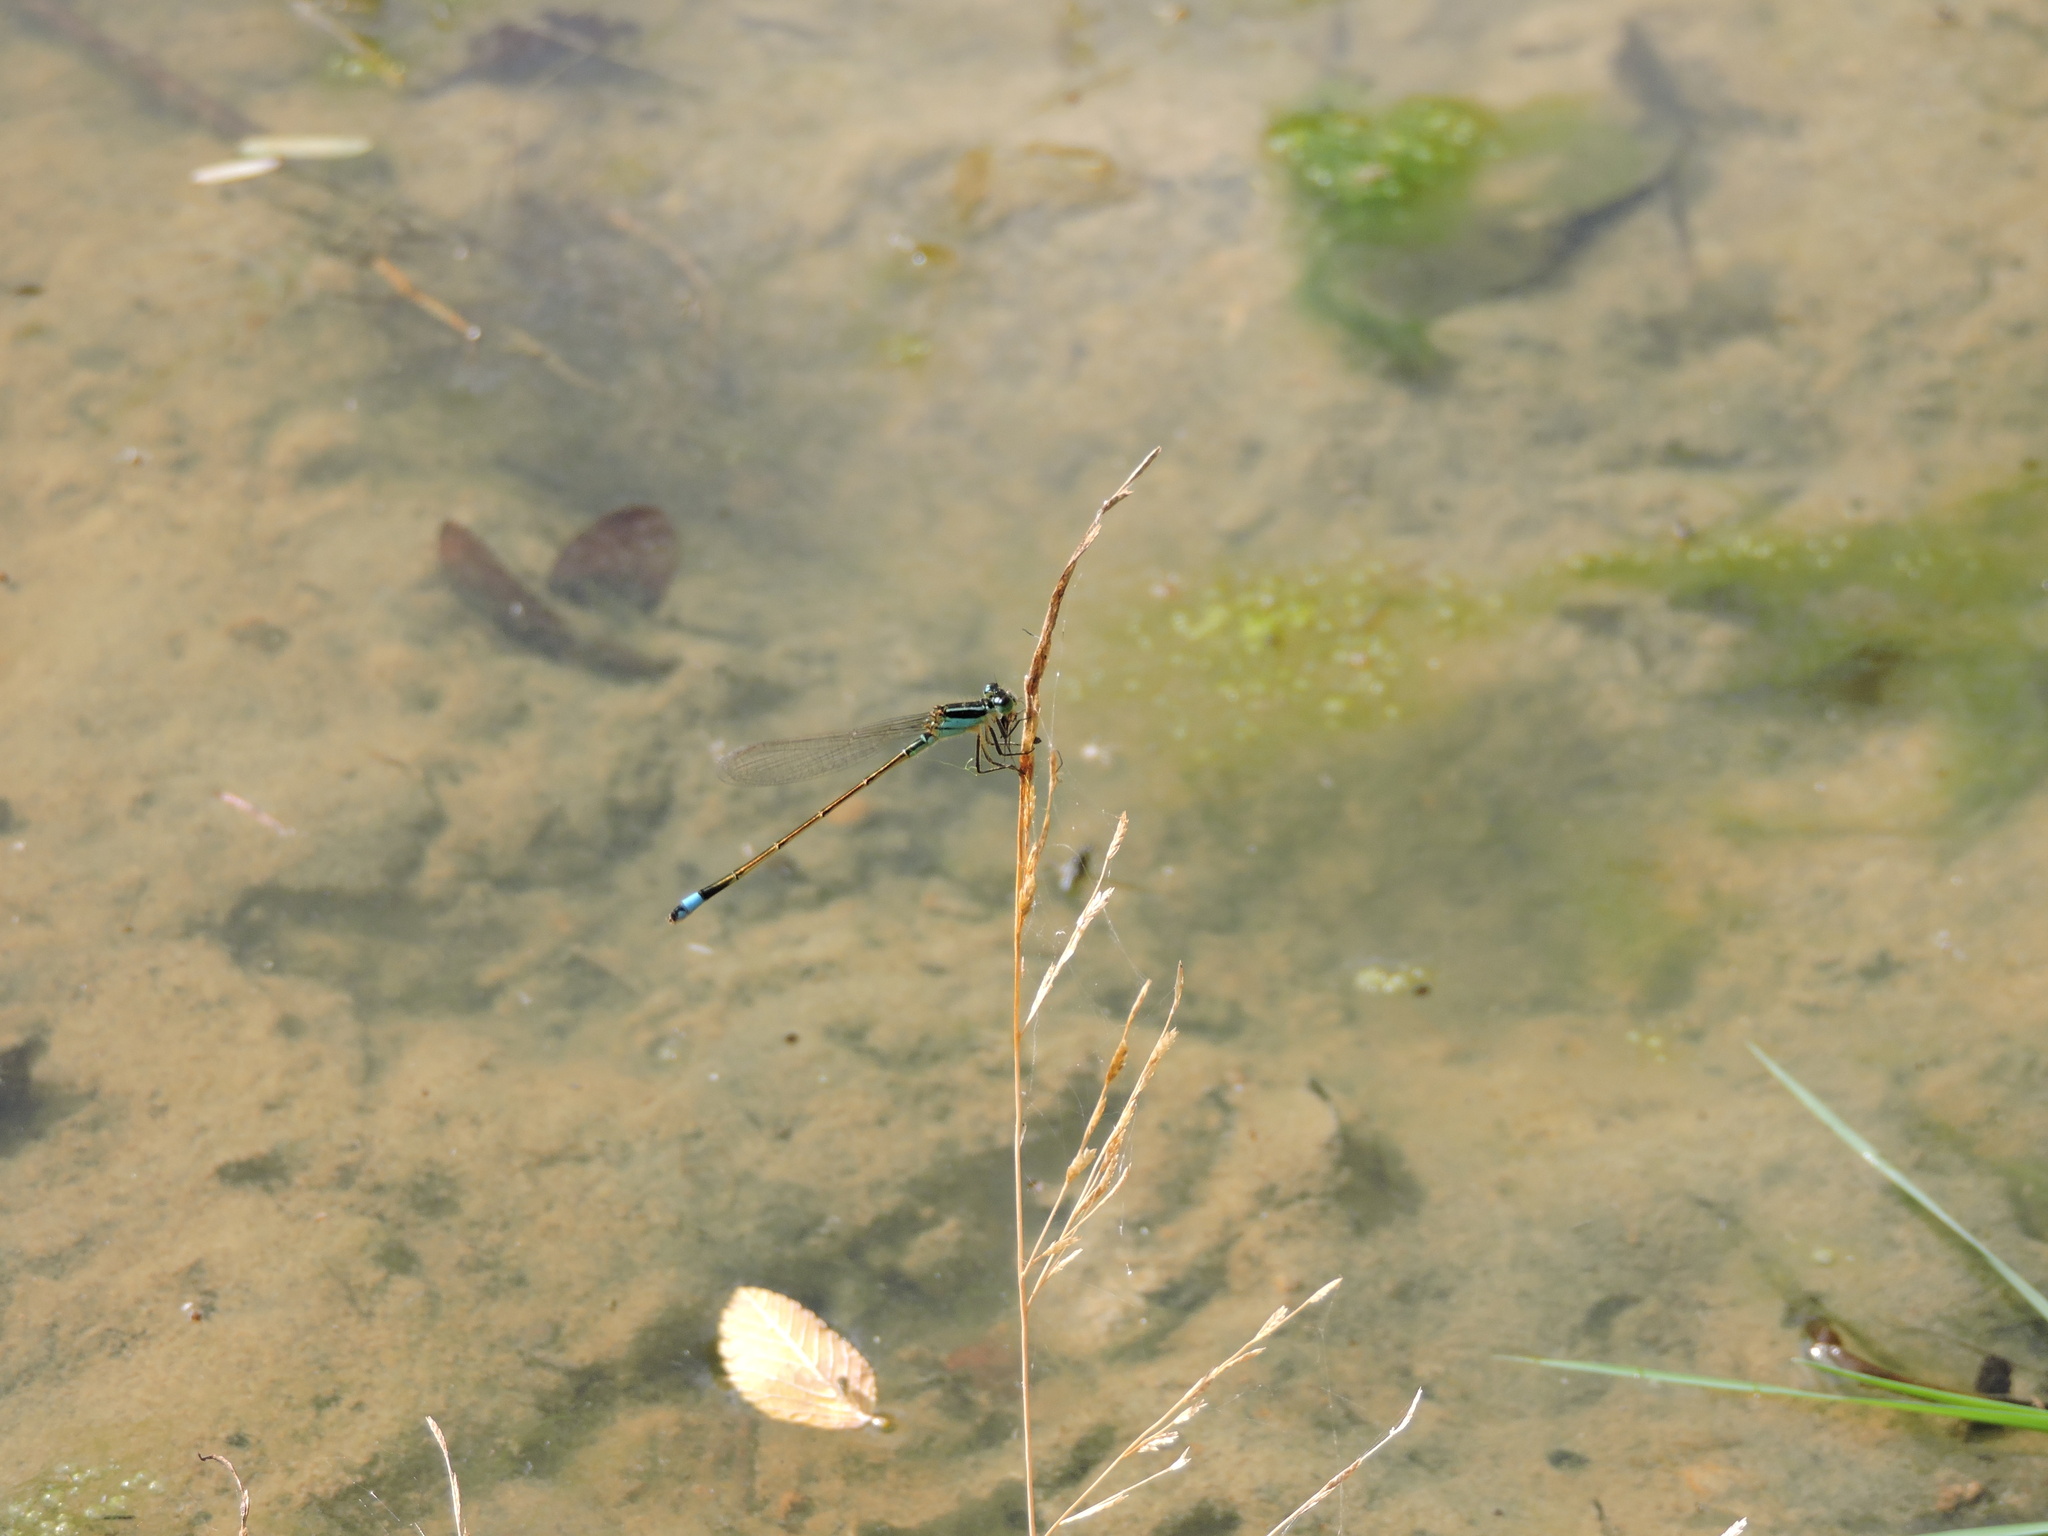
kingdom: Animalia
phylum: Arthropoda
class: Insecta
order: Odonata
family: Coenagrionidae
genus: Ischnura
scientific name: Ischnura ramburii
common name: Rambur's forktail
